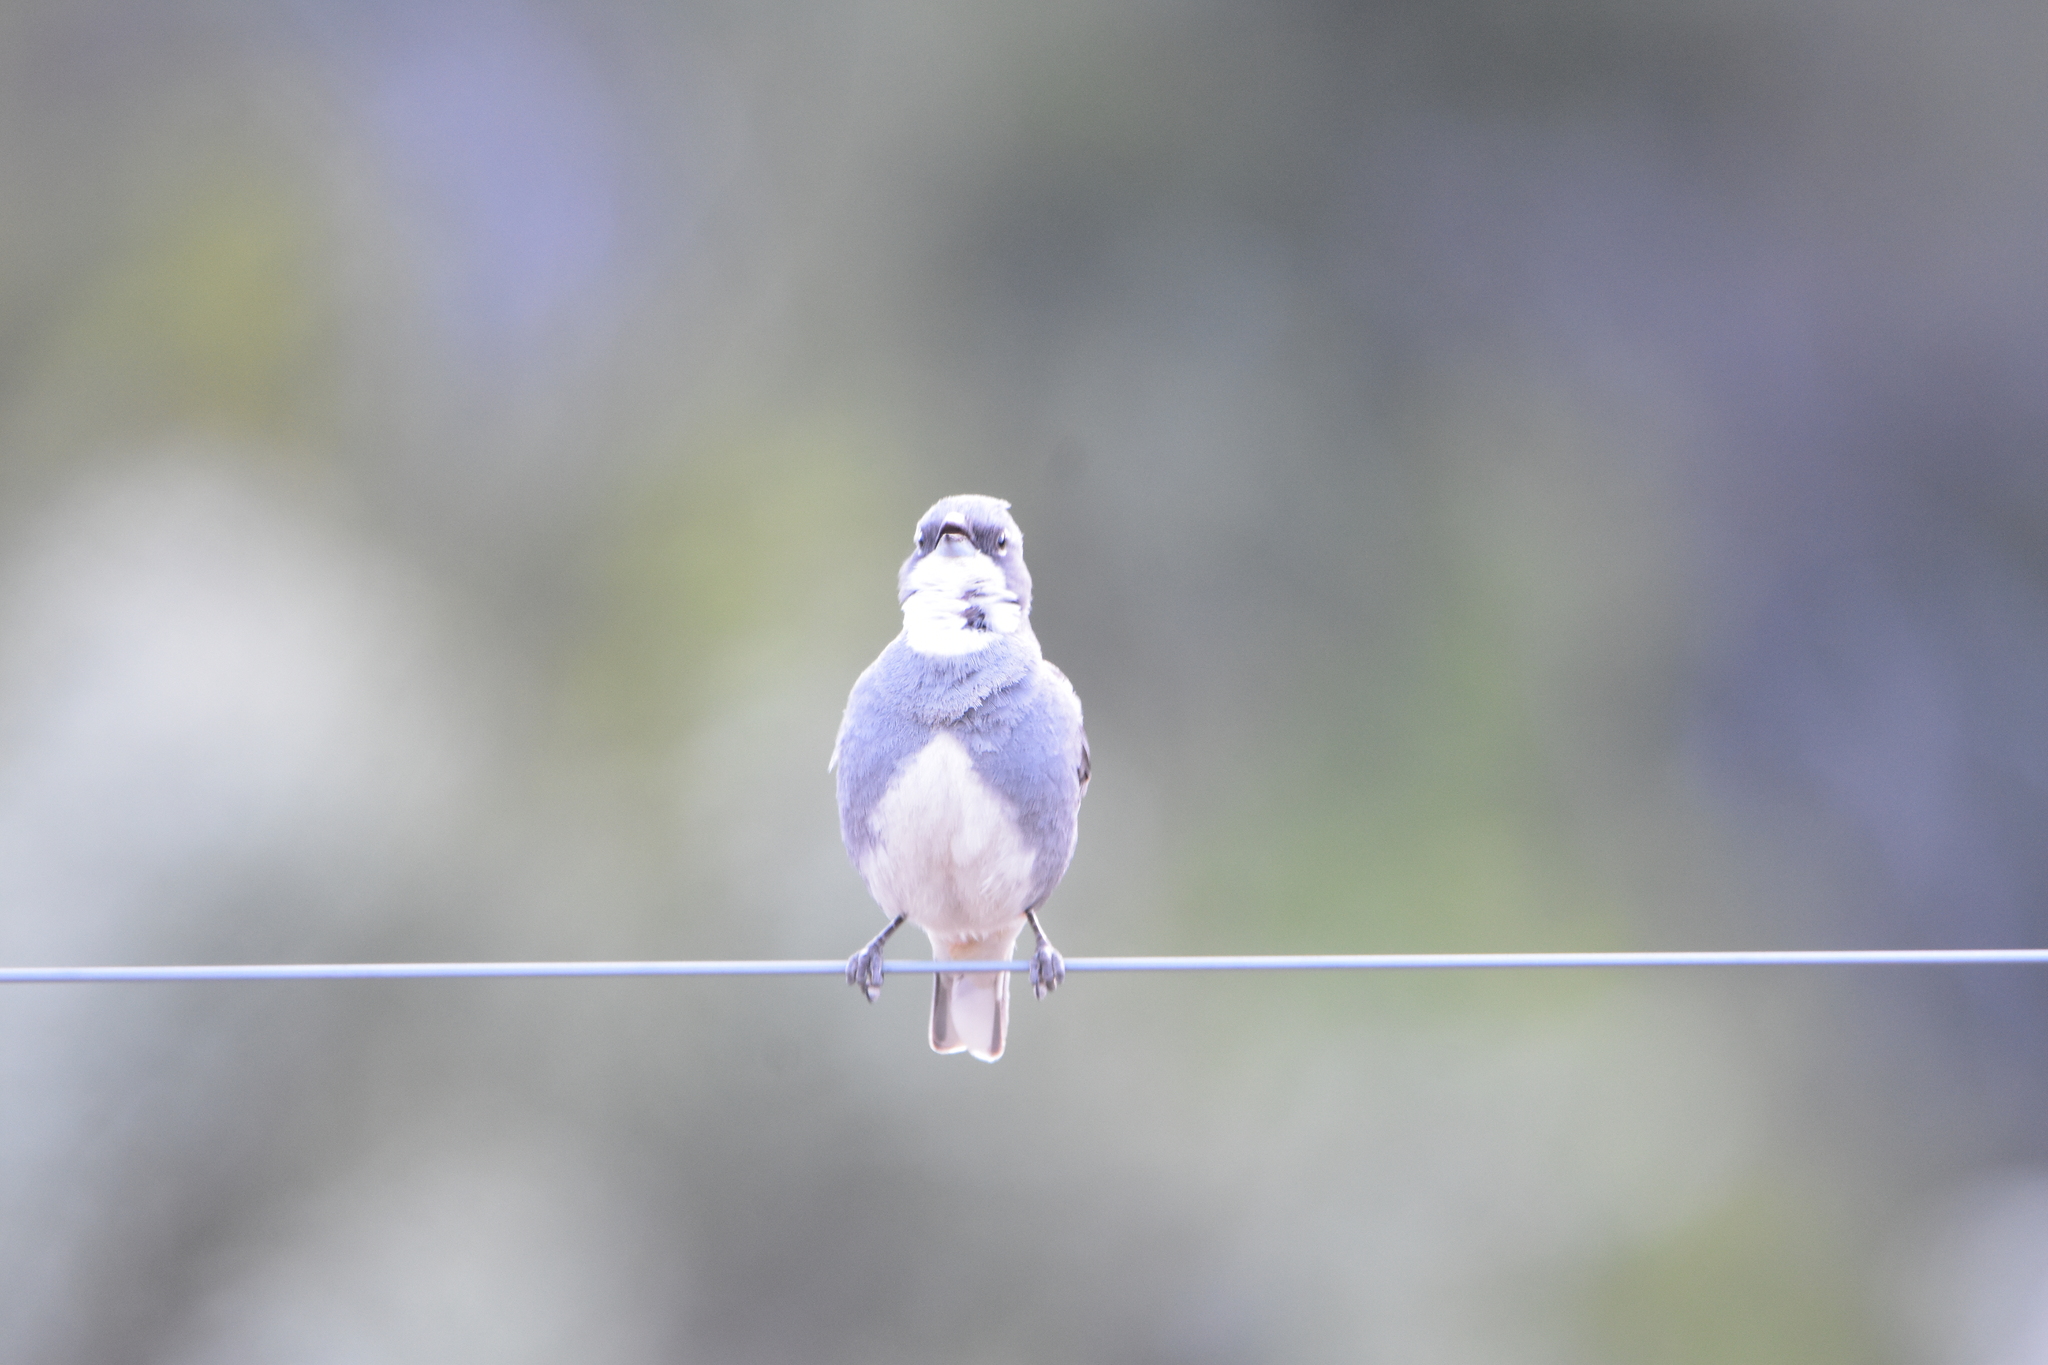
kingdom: Animalia
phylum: Chordata
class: Aves
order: Passeriformes
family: Thraupidae
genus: Diuca
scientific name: Diuca diuca
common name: Common diuca finch
